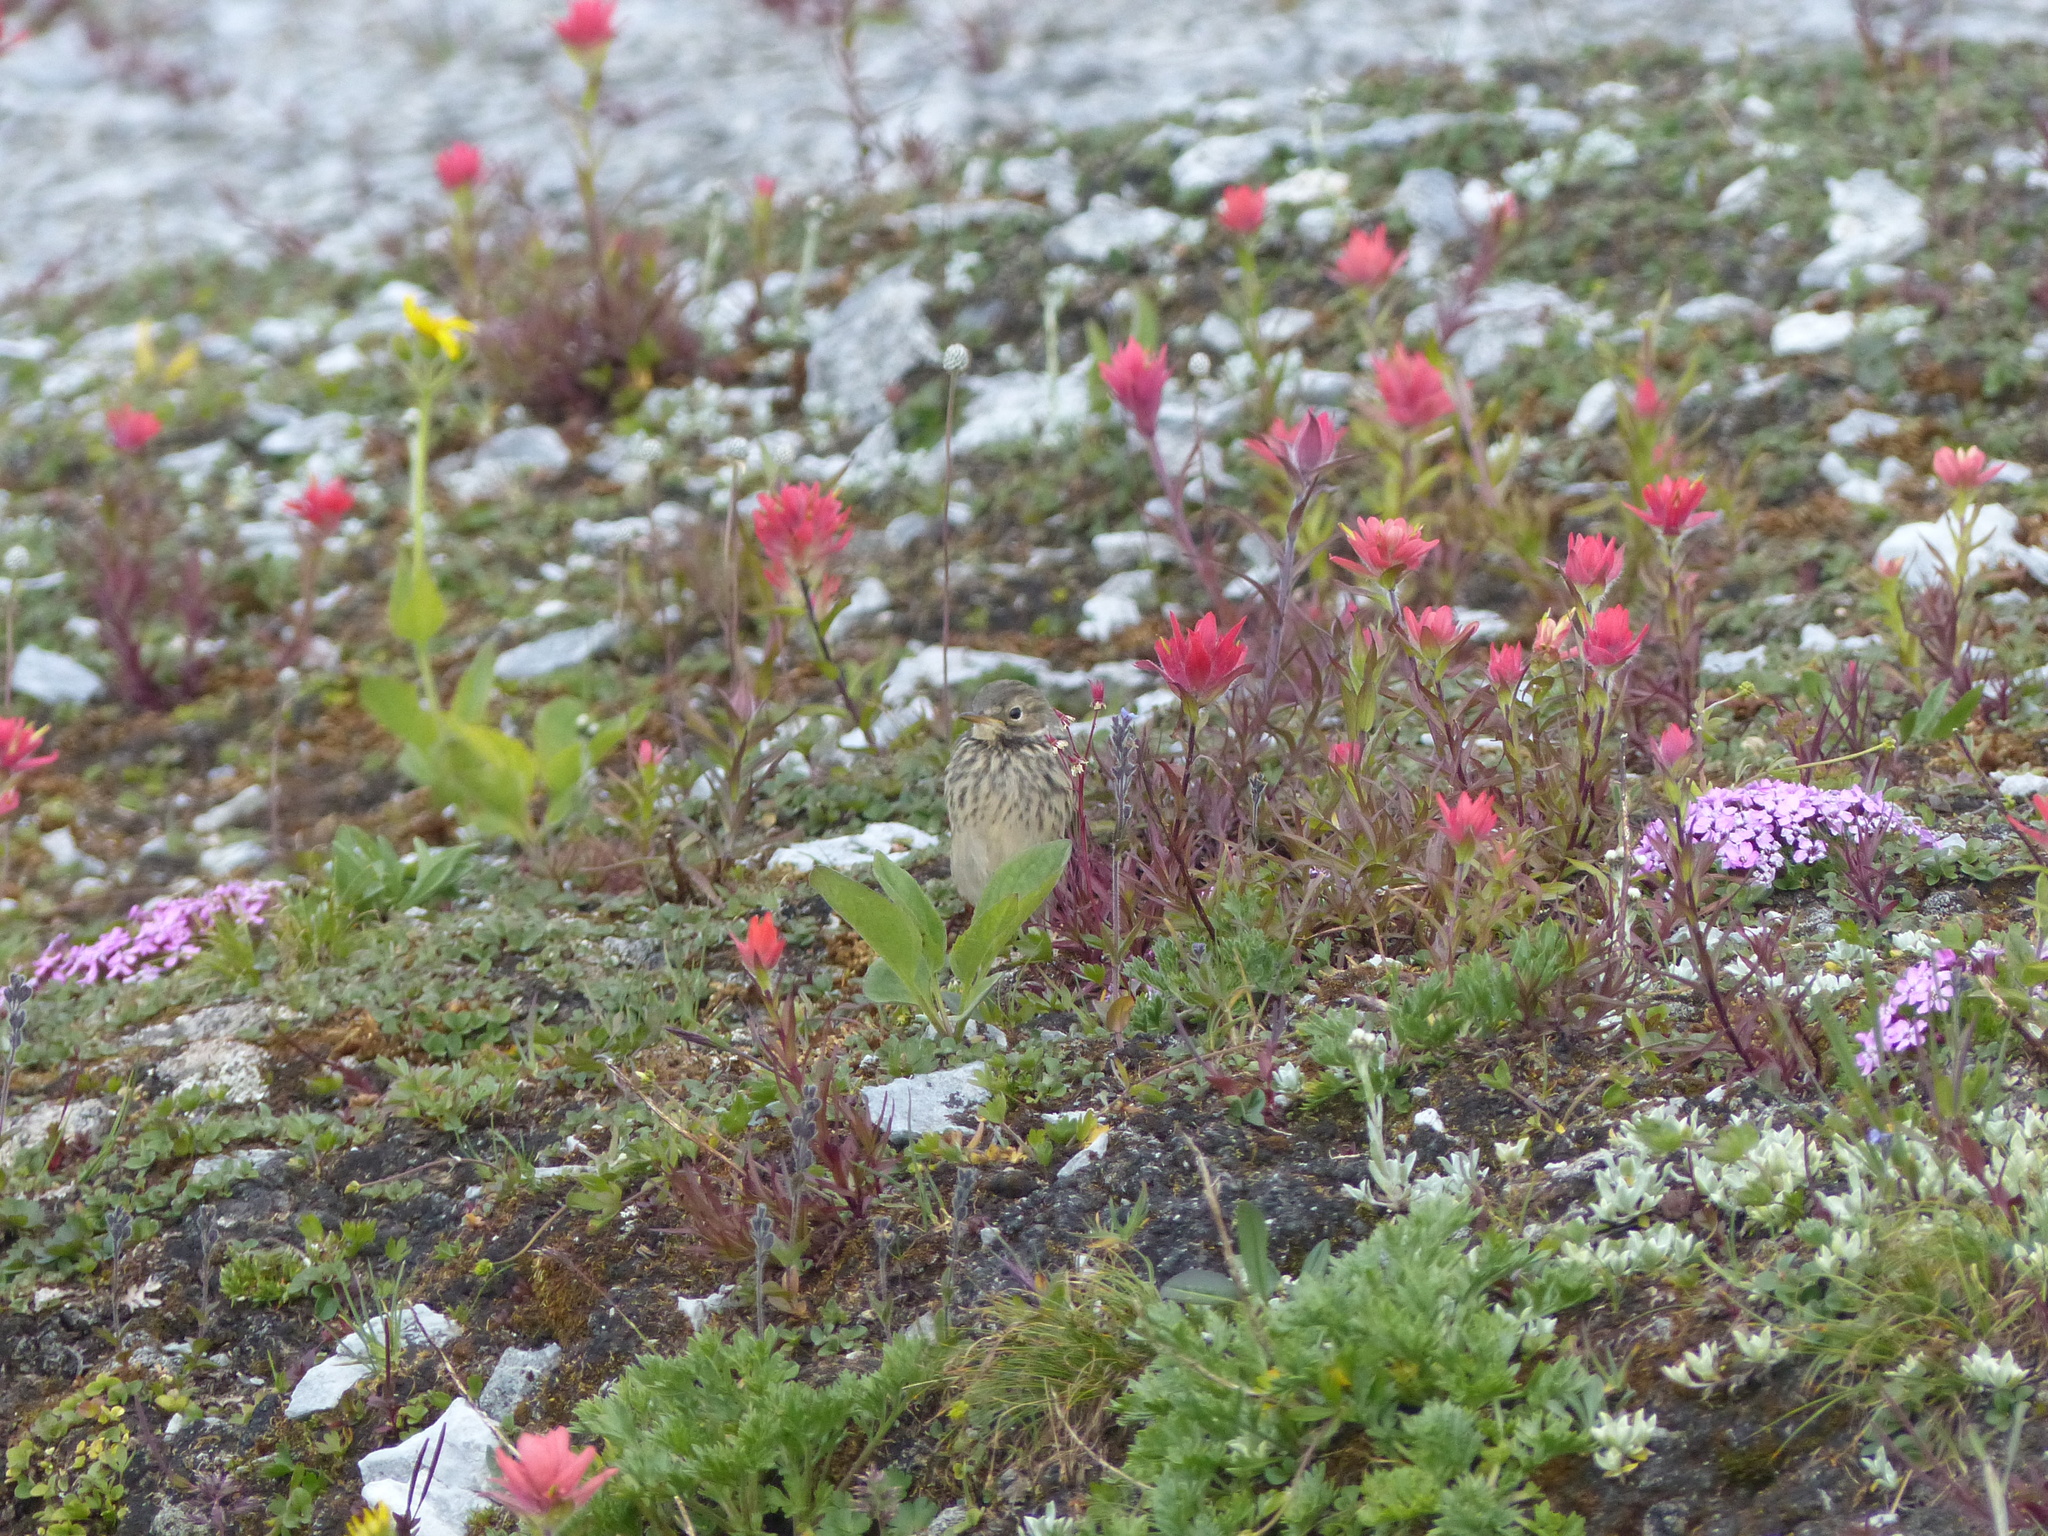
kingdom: Animalia
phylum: Chordata
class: Aves
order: Passeriformes
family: Motacillidae
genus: Anthus
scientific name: Anthus rubescens
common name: Buff-bellied pipit
